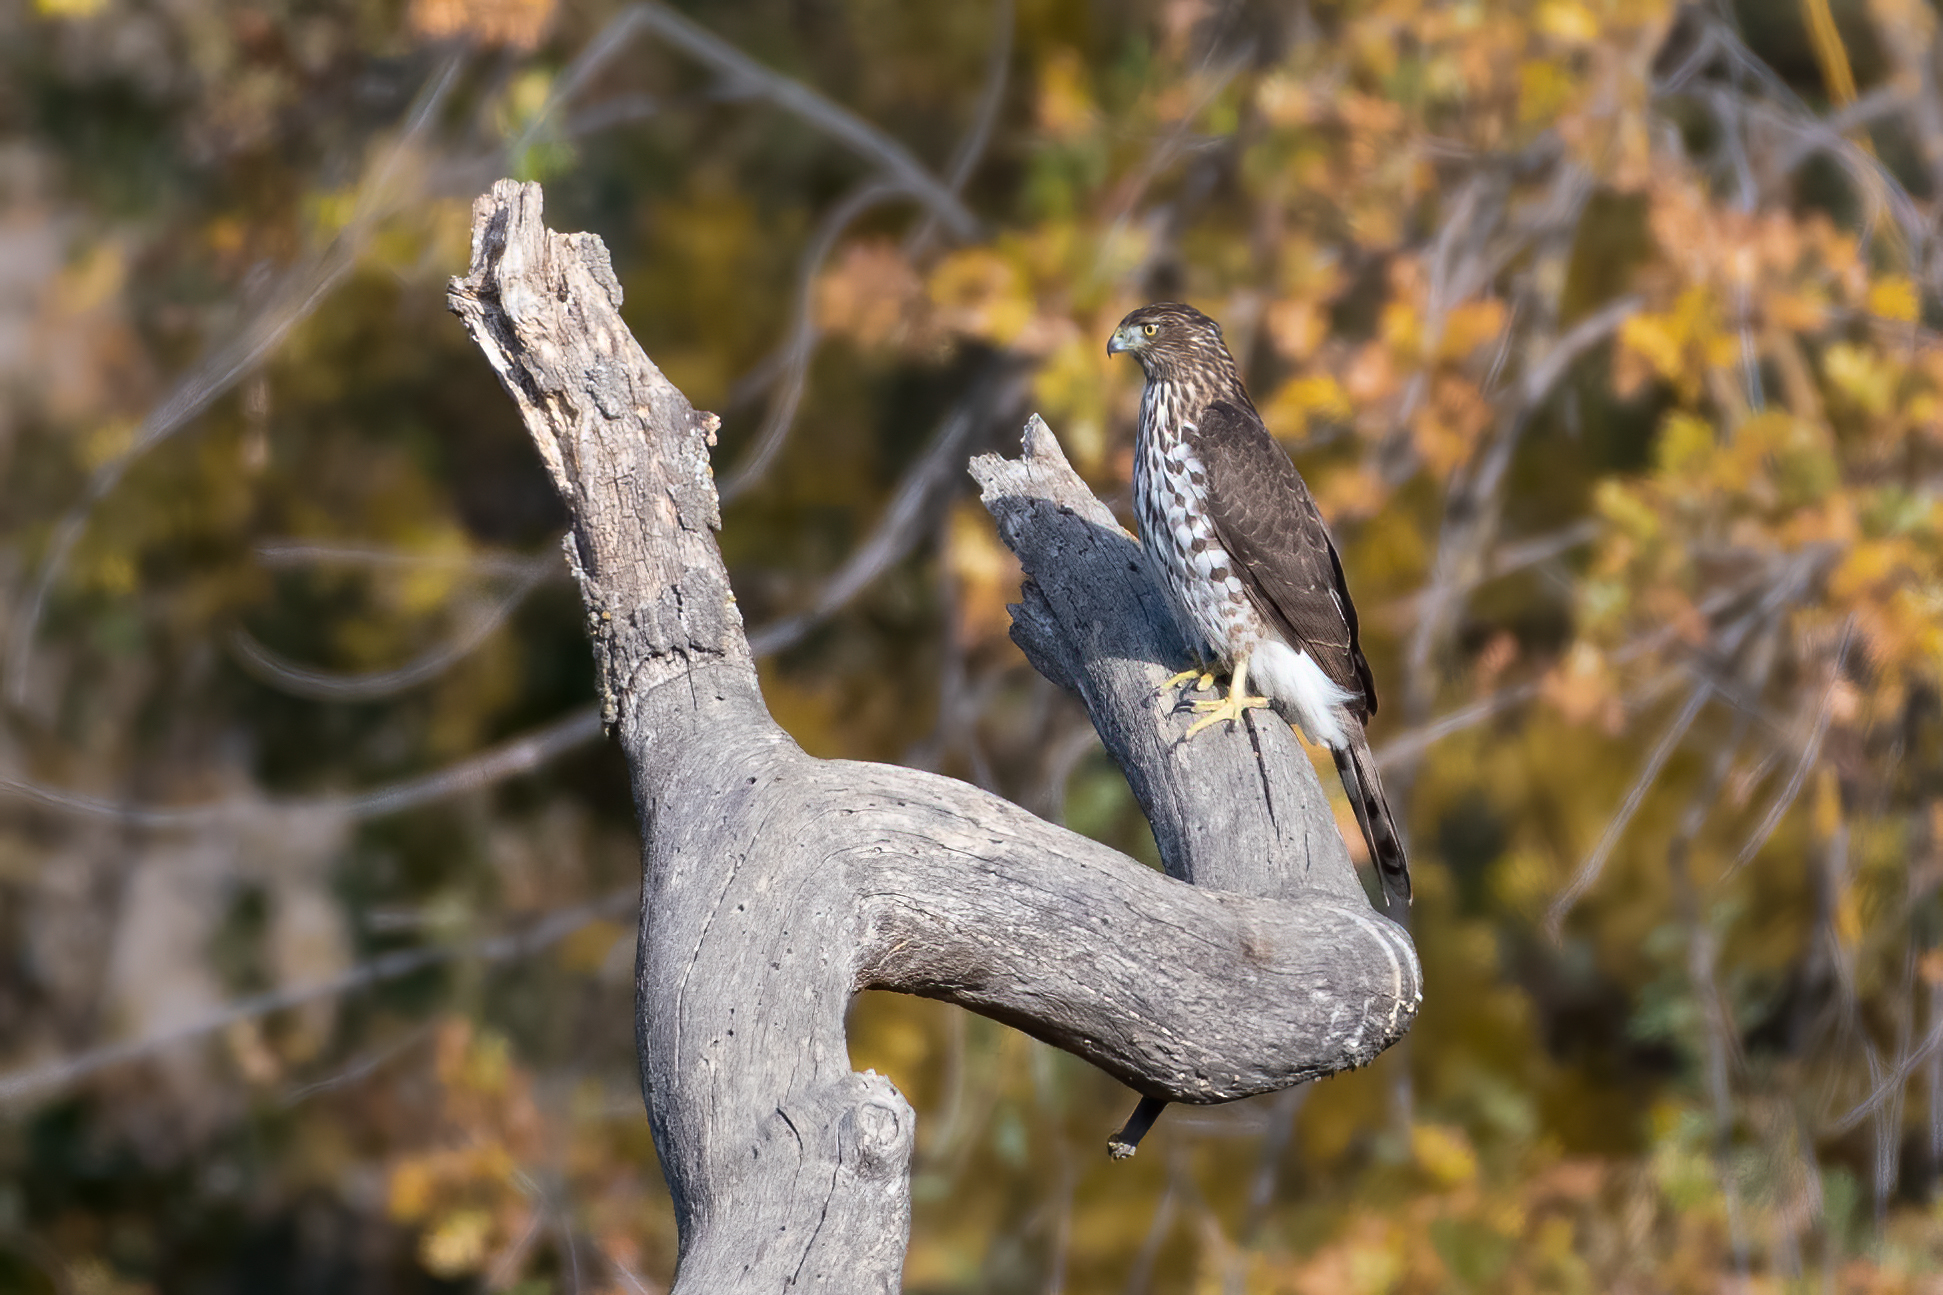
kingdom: Animalia
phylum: Chordata
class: Aves
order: Accipitriformes
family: Accipitridae
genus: Accipiter
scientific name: Accipiter cooperii
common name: Cooper's hawk
